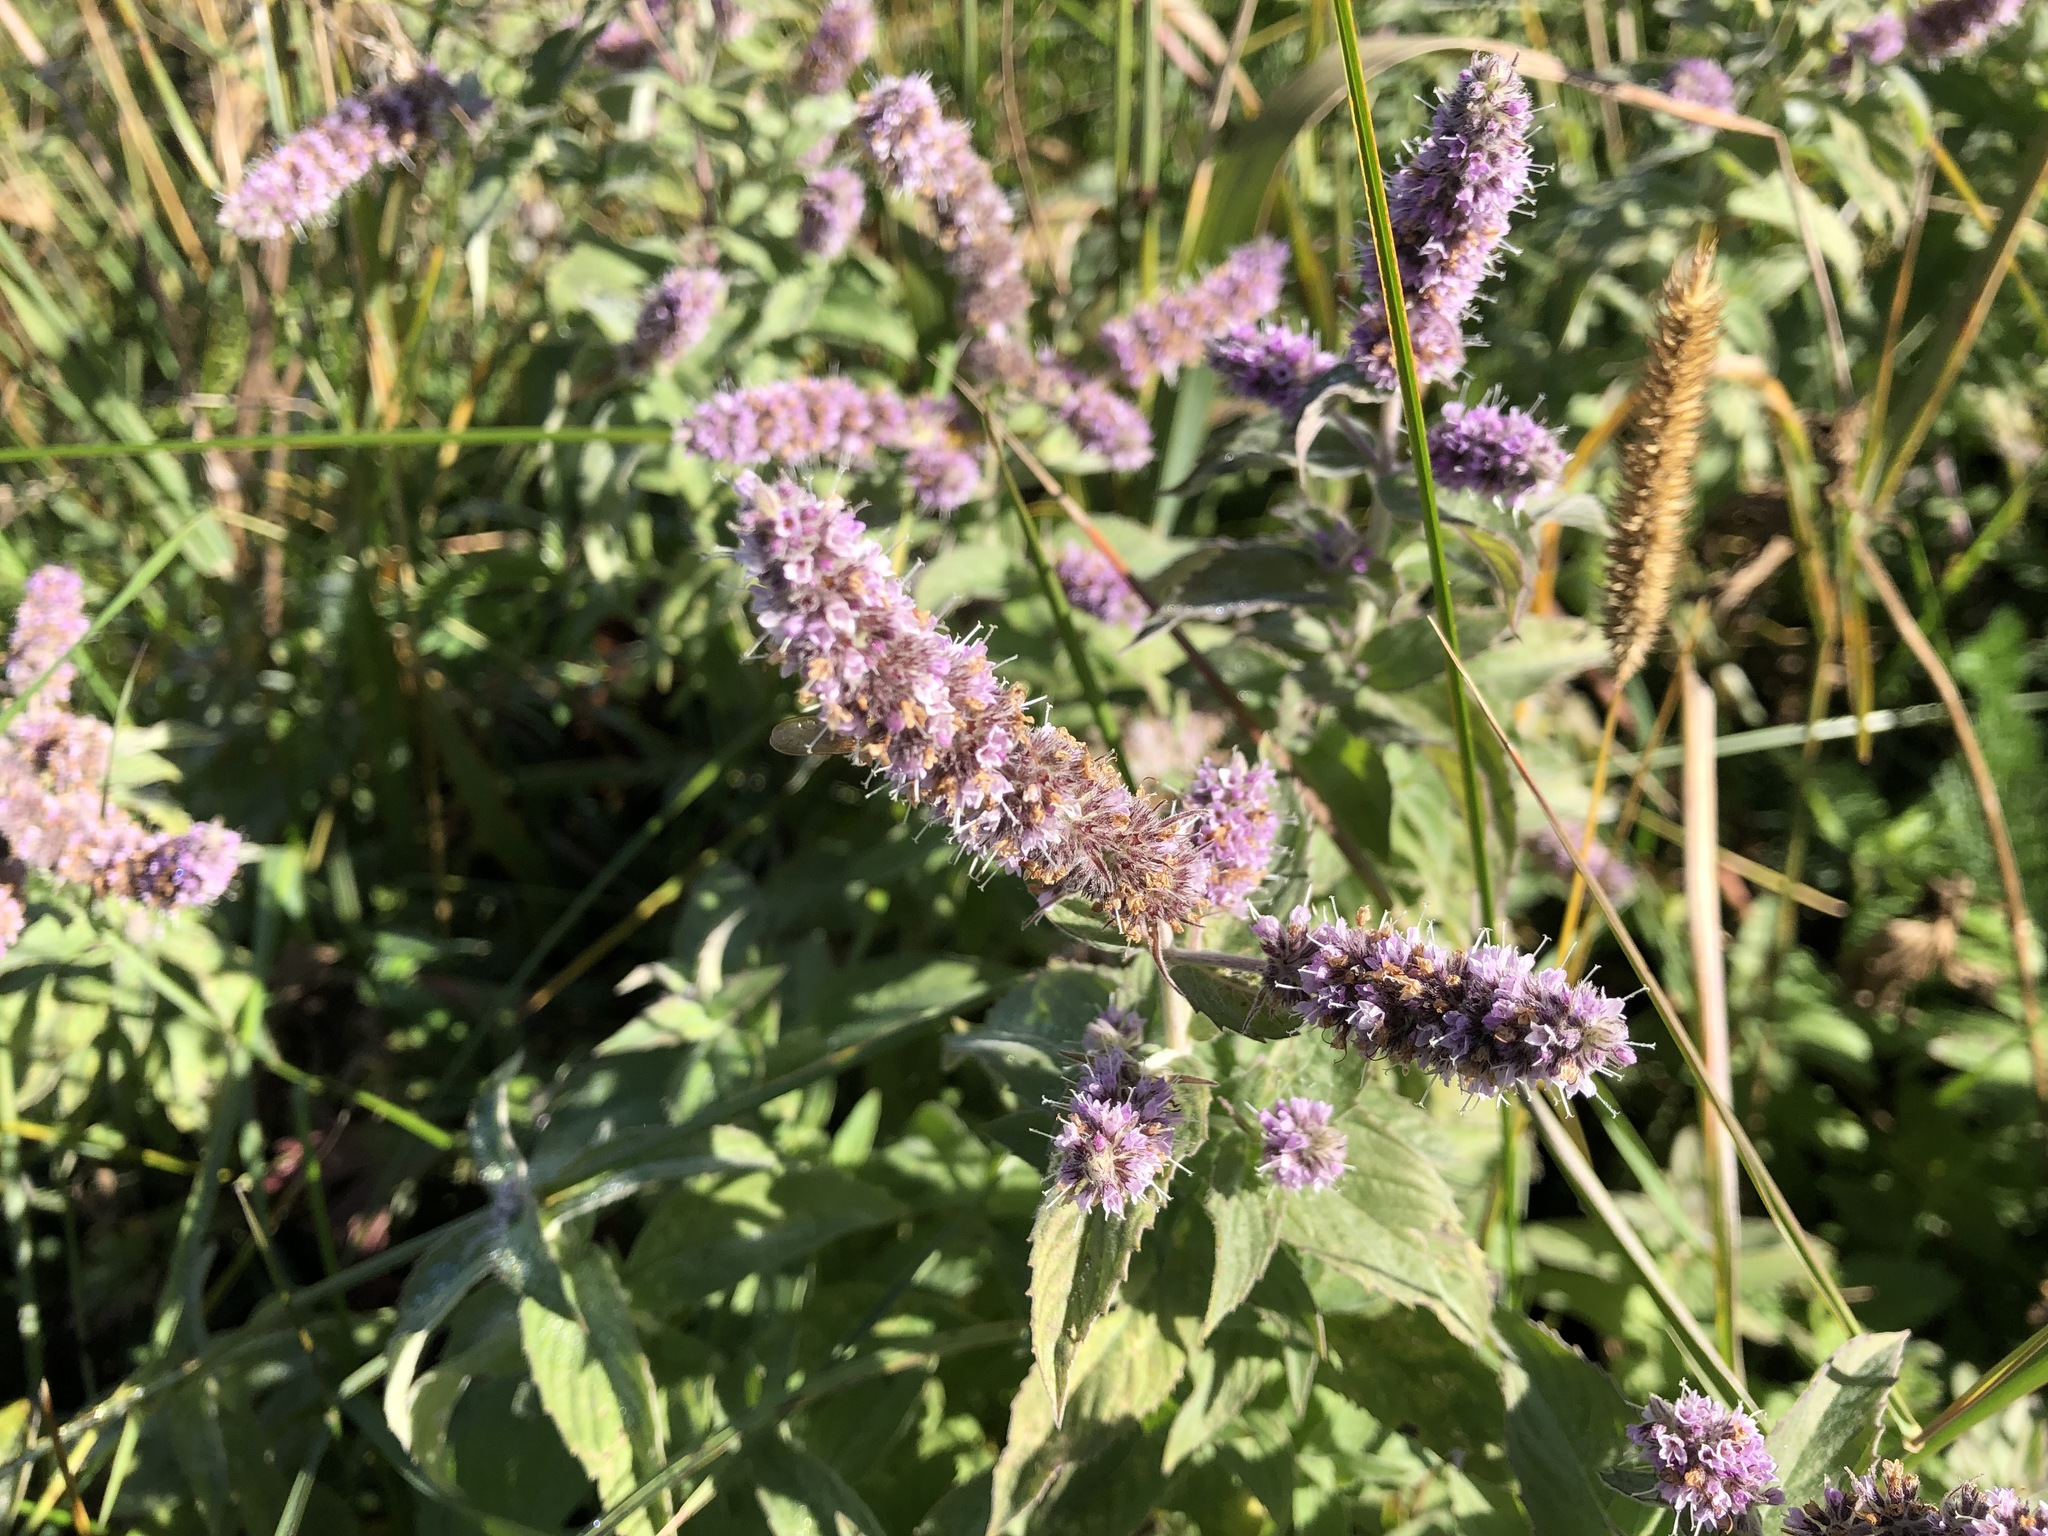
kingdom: Plantae
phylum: Tracheophyta
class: Magnoliopsida
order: Lamiales
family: Lamiaceae
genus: Mentha
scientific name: Mentha longifolia
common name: Horse mint
